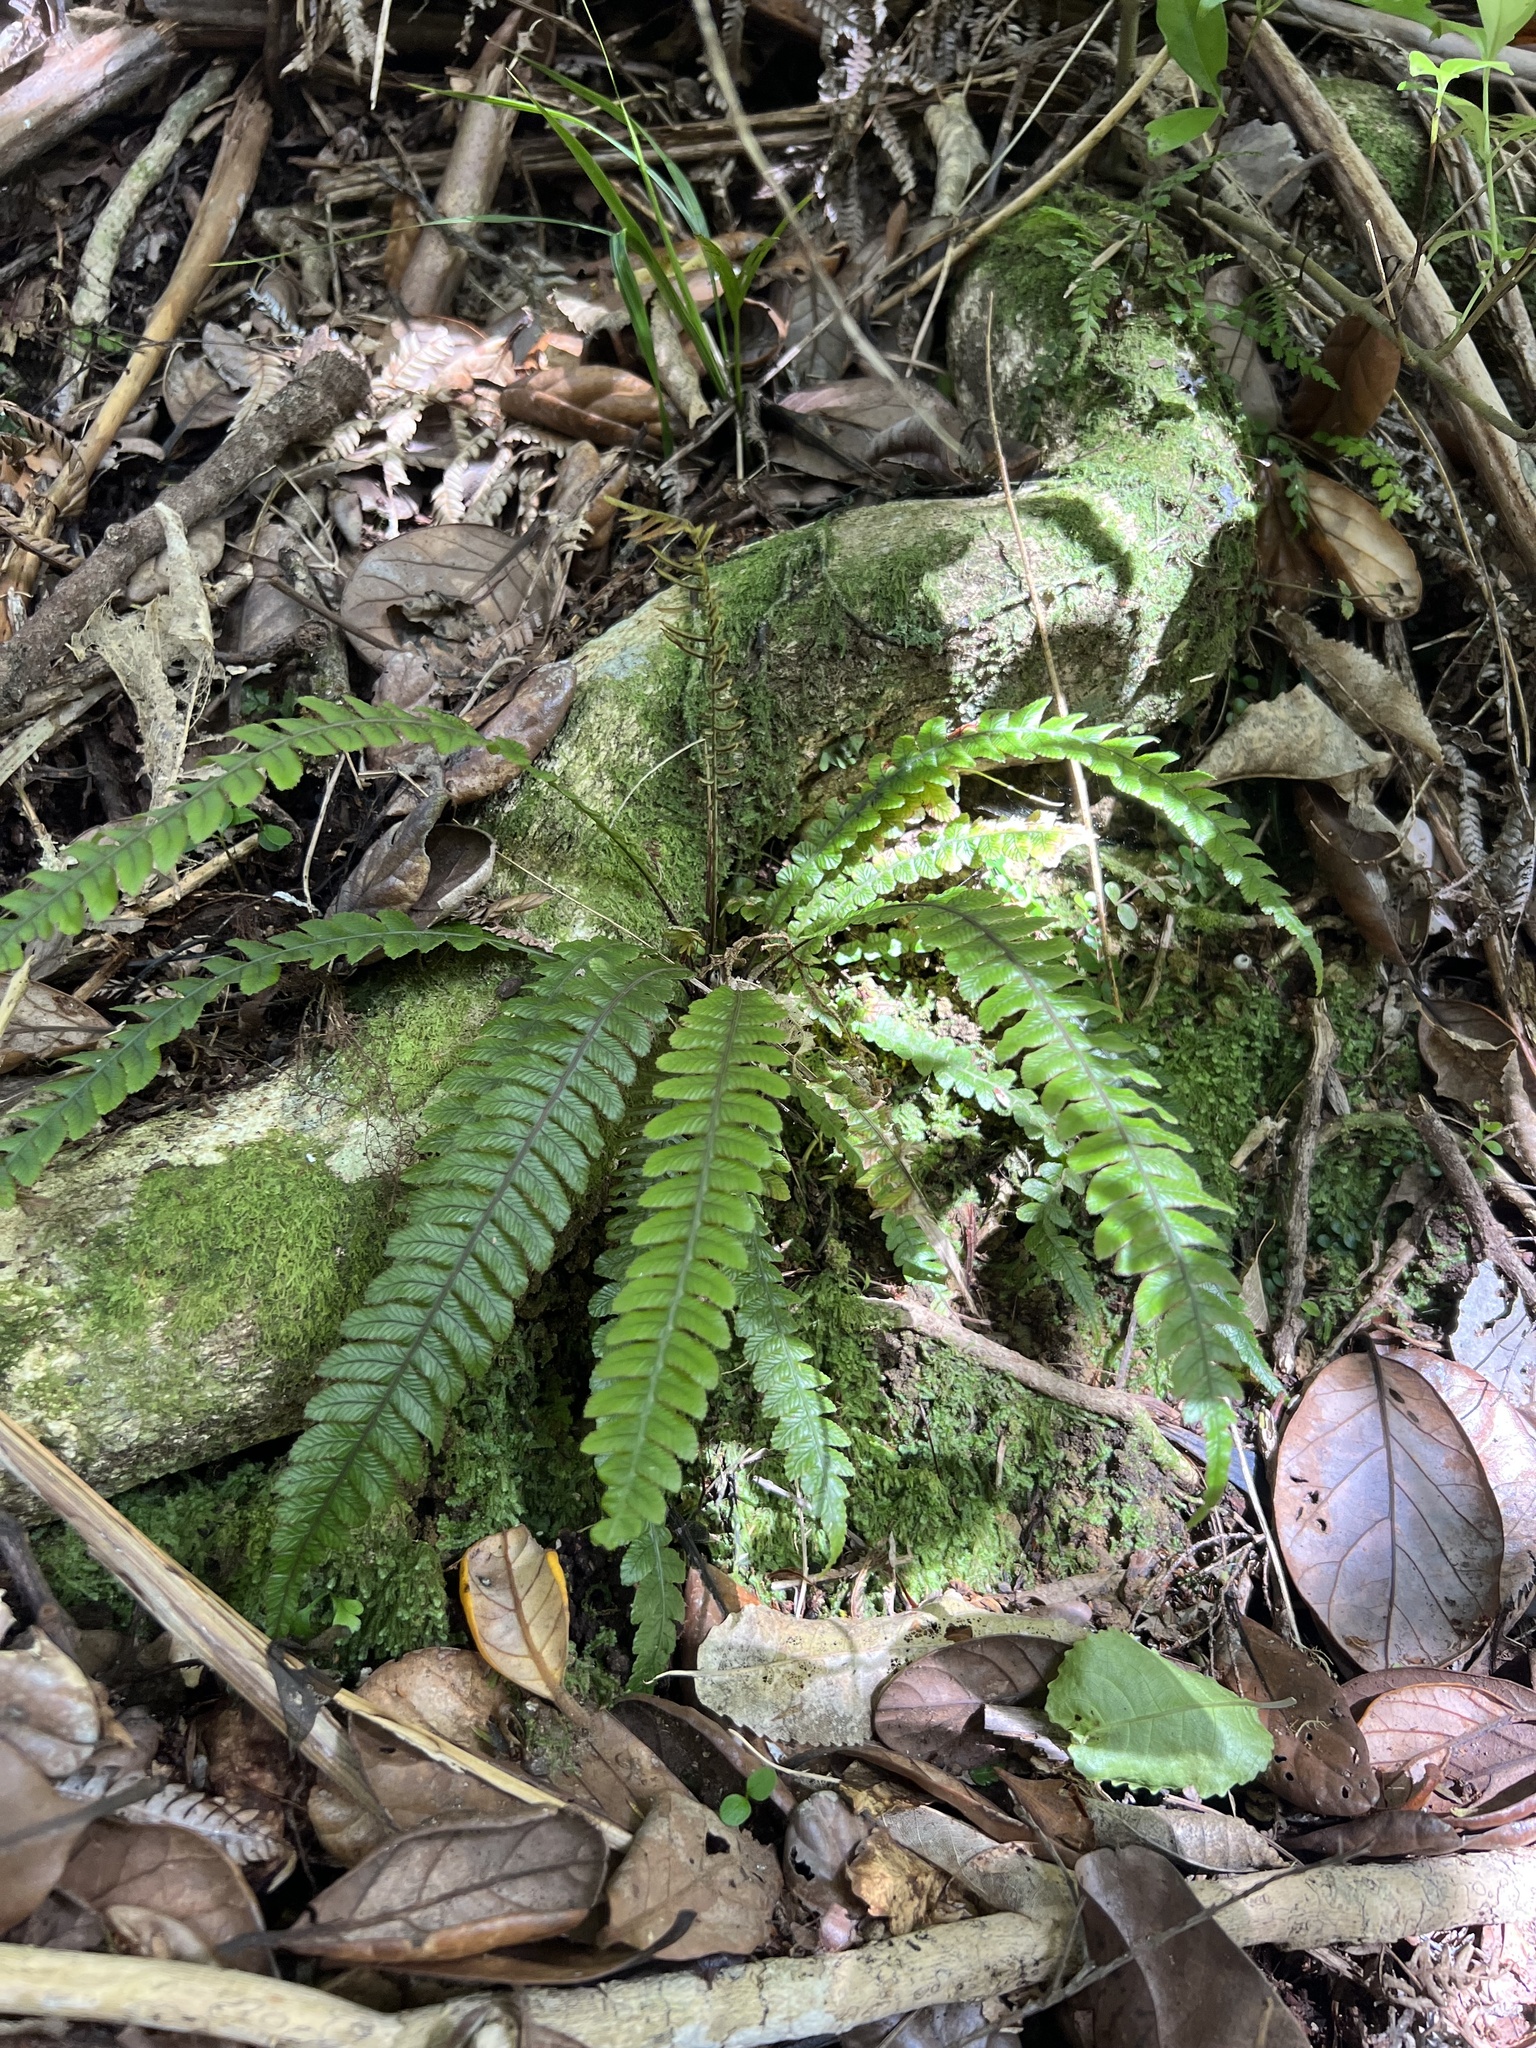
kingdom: Plantae
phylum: Tracheophyta
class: Polypodiopsida
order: Polypodiales
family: Blechnaceae
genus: Austroblechnum
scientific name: Austroblechnum lanceolatum
